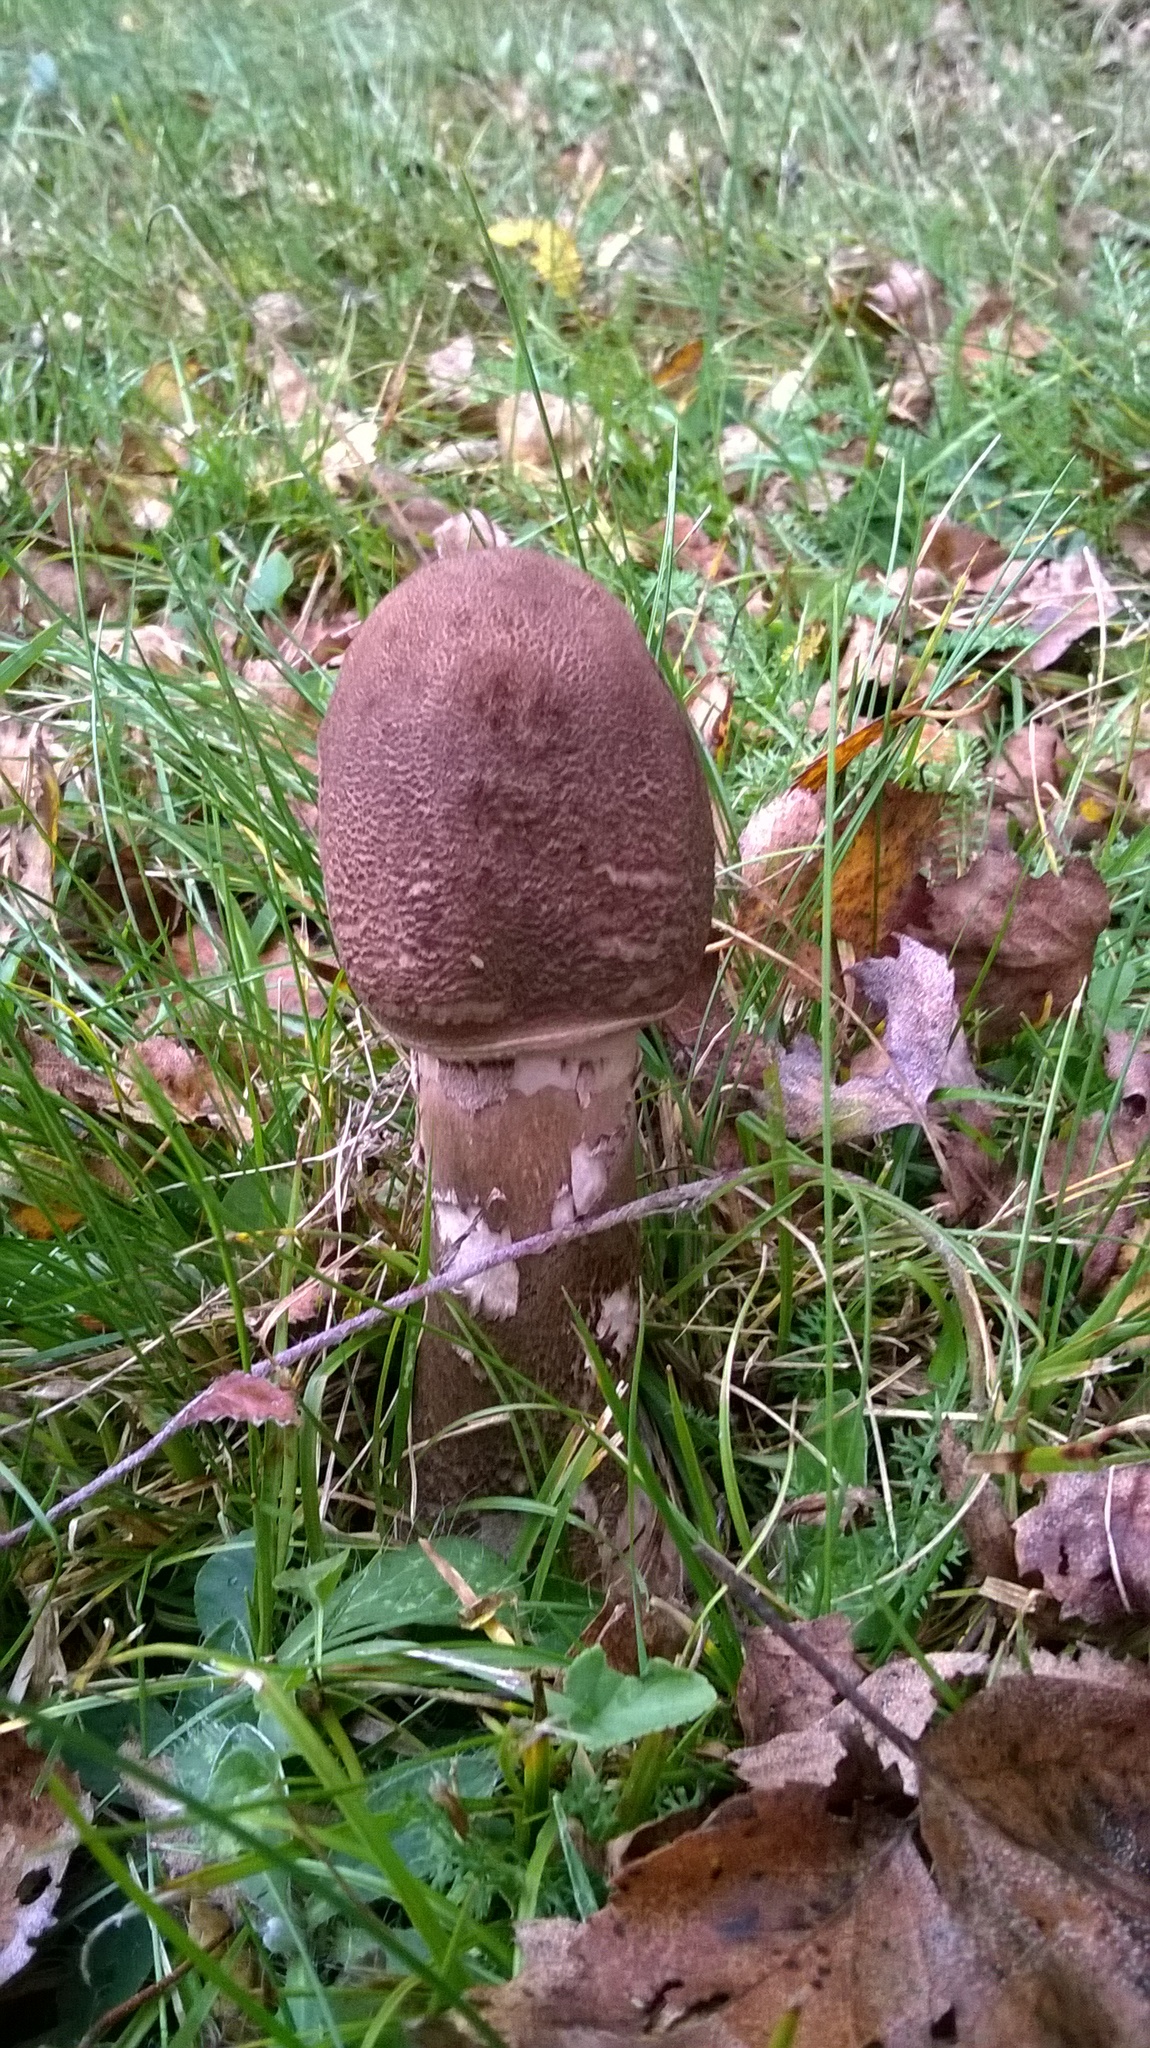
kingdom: Fungi
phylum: Basidiomycota
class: Agaricomycetes
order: Agaricales
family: Agaricaceae
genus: Macrolepiota
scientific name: Macrolepiota procera
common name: Parasol
